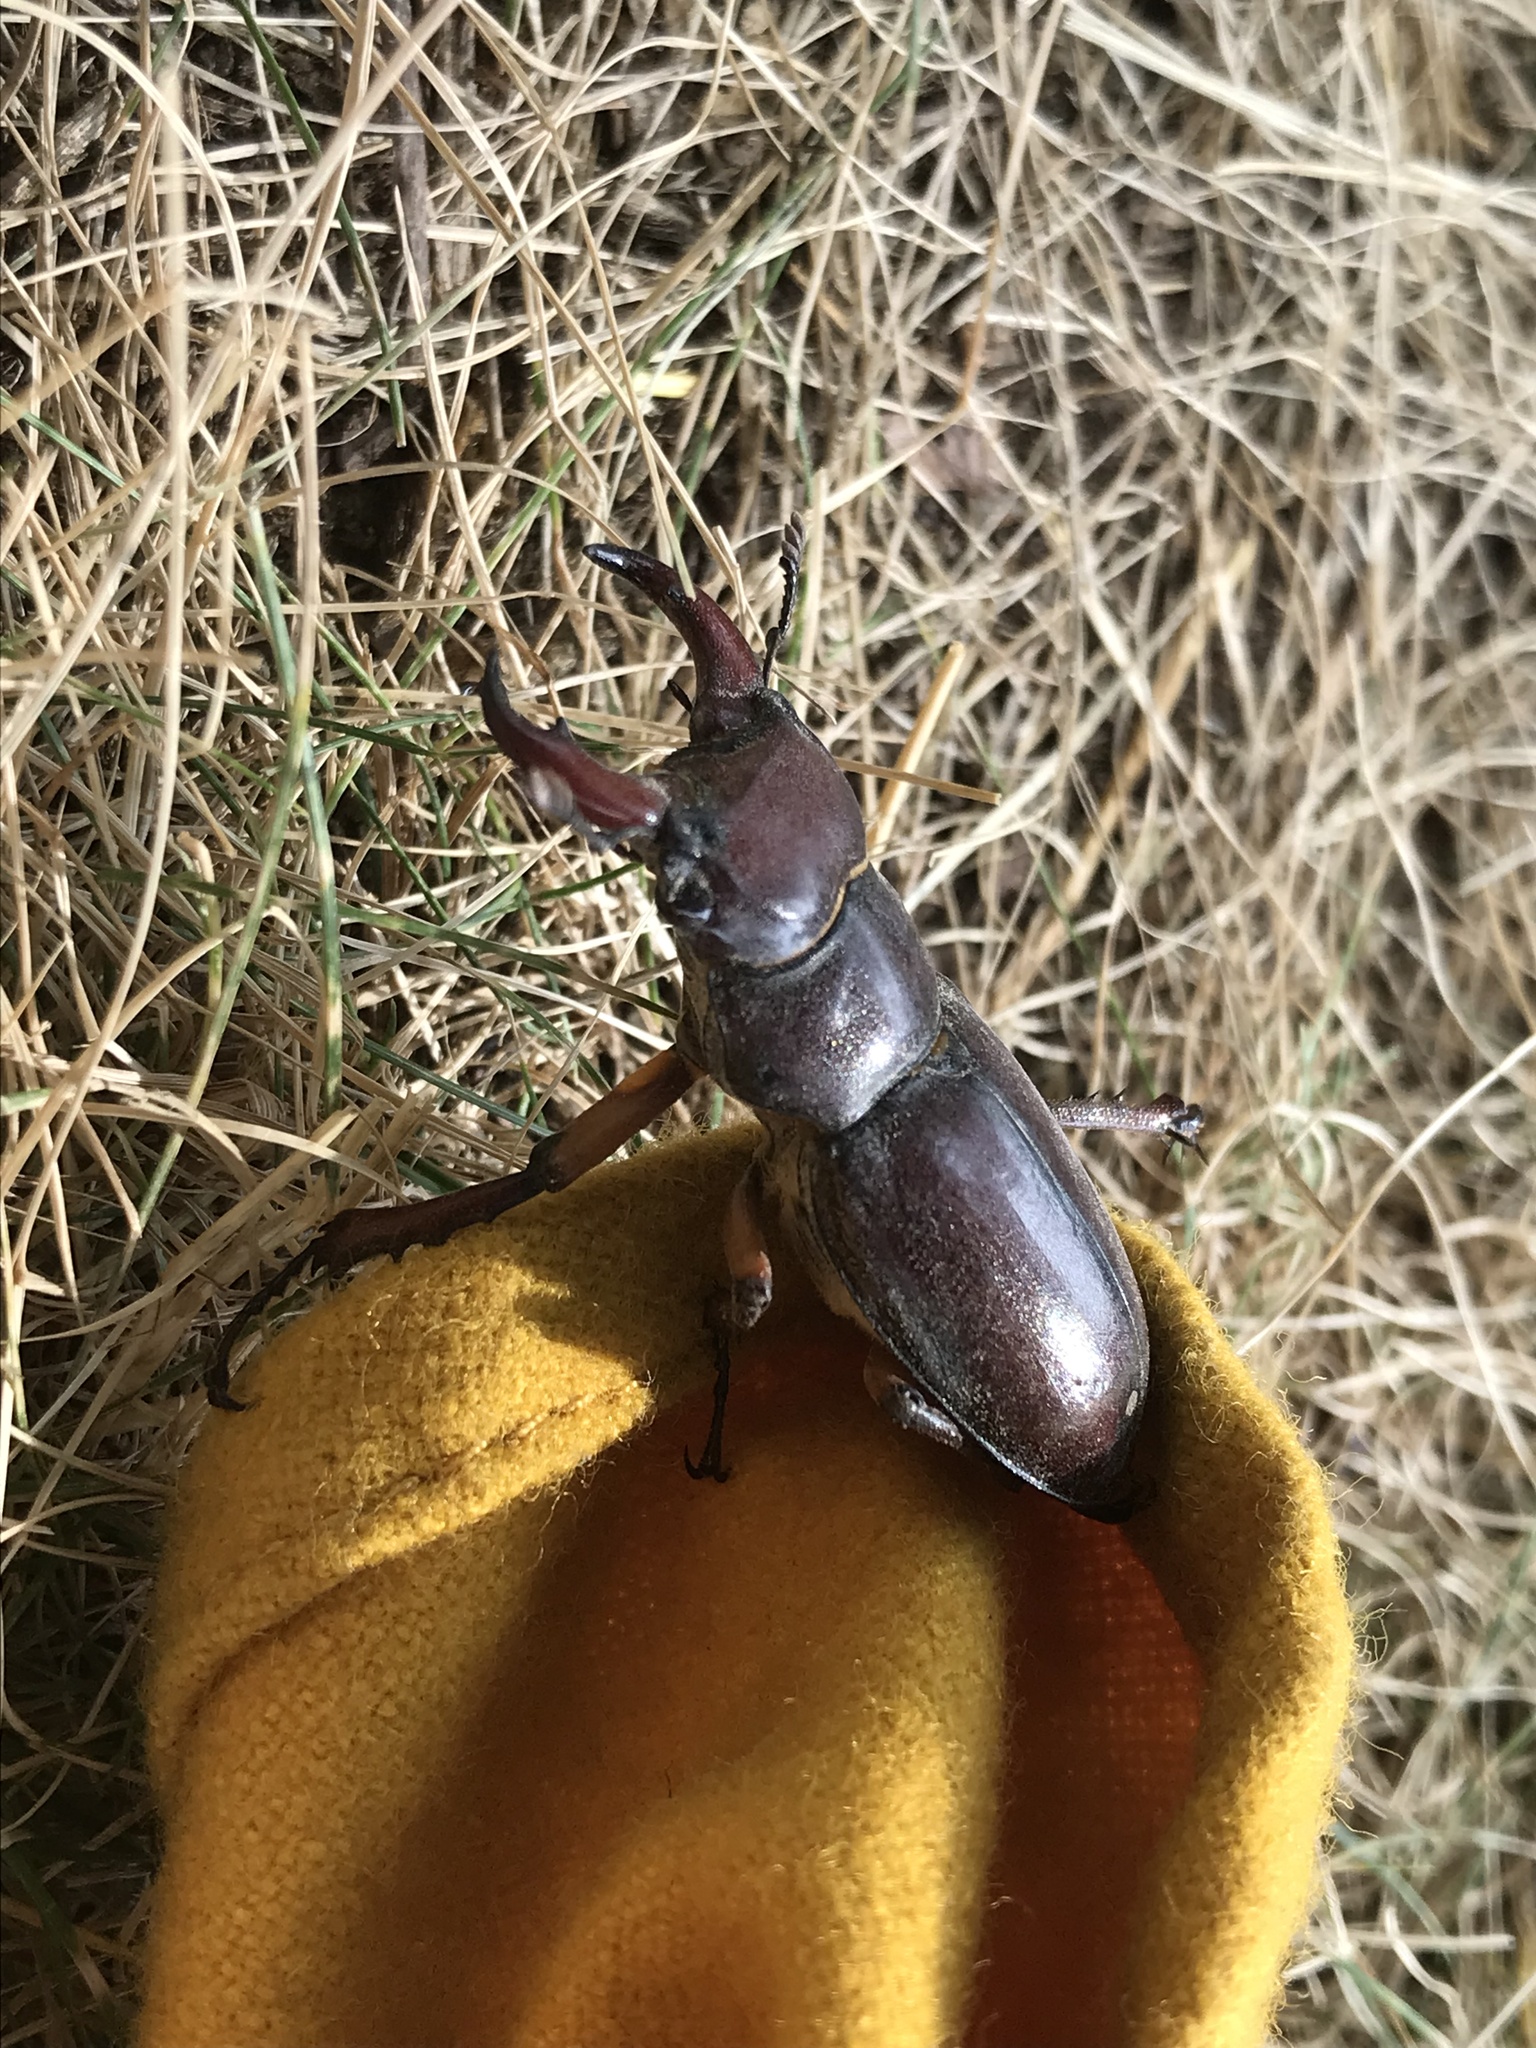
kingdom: Animalia
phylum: Arthropoda
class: Insecta
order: Coleoptera
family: Lucanidae
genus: Lucanus
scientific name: Lucanus capreolus
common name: Stag beetle
